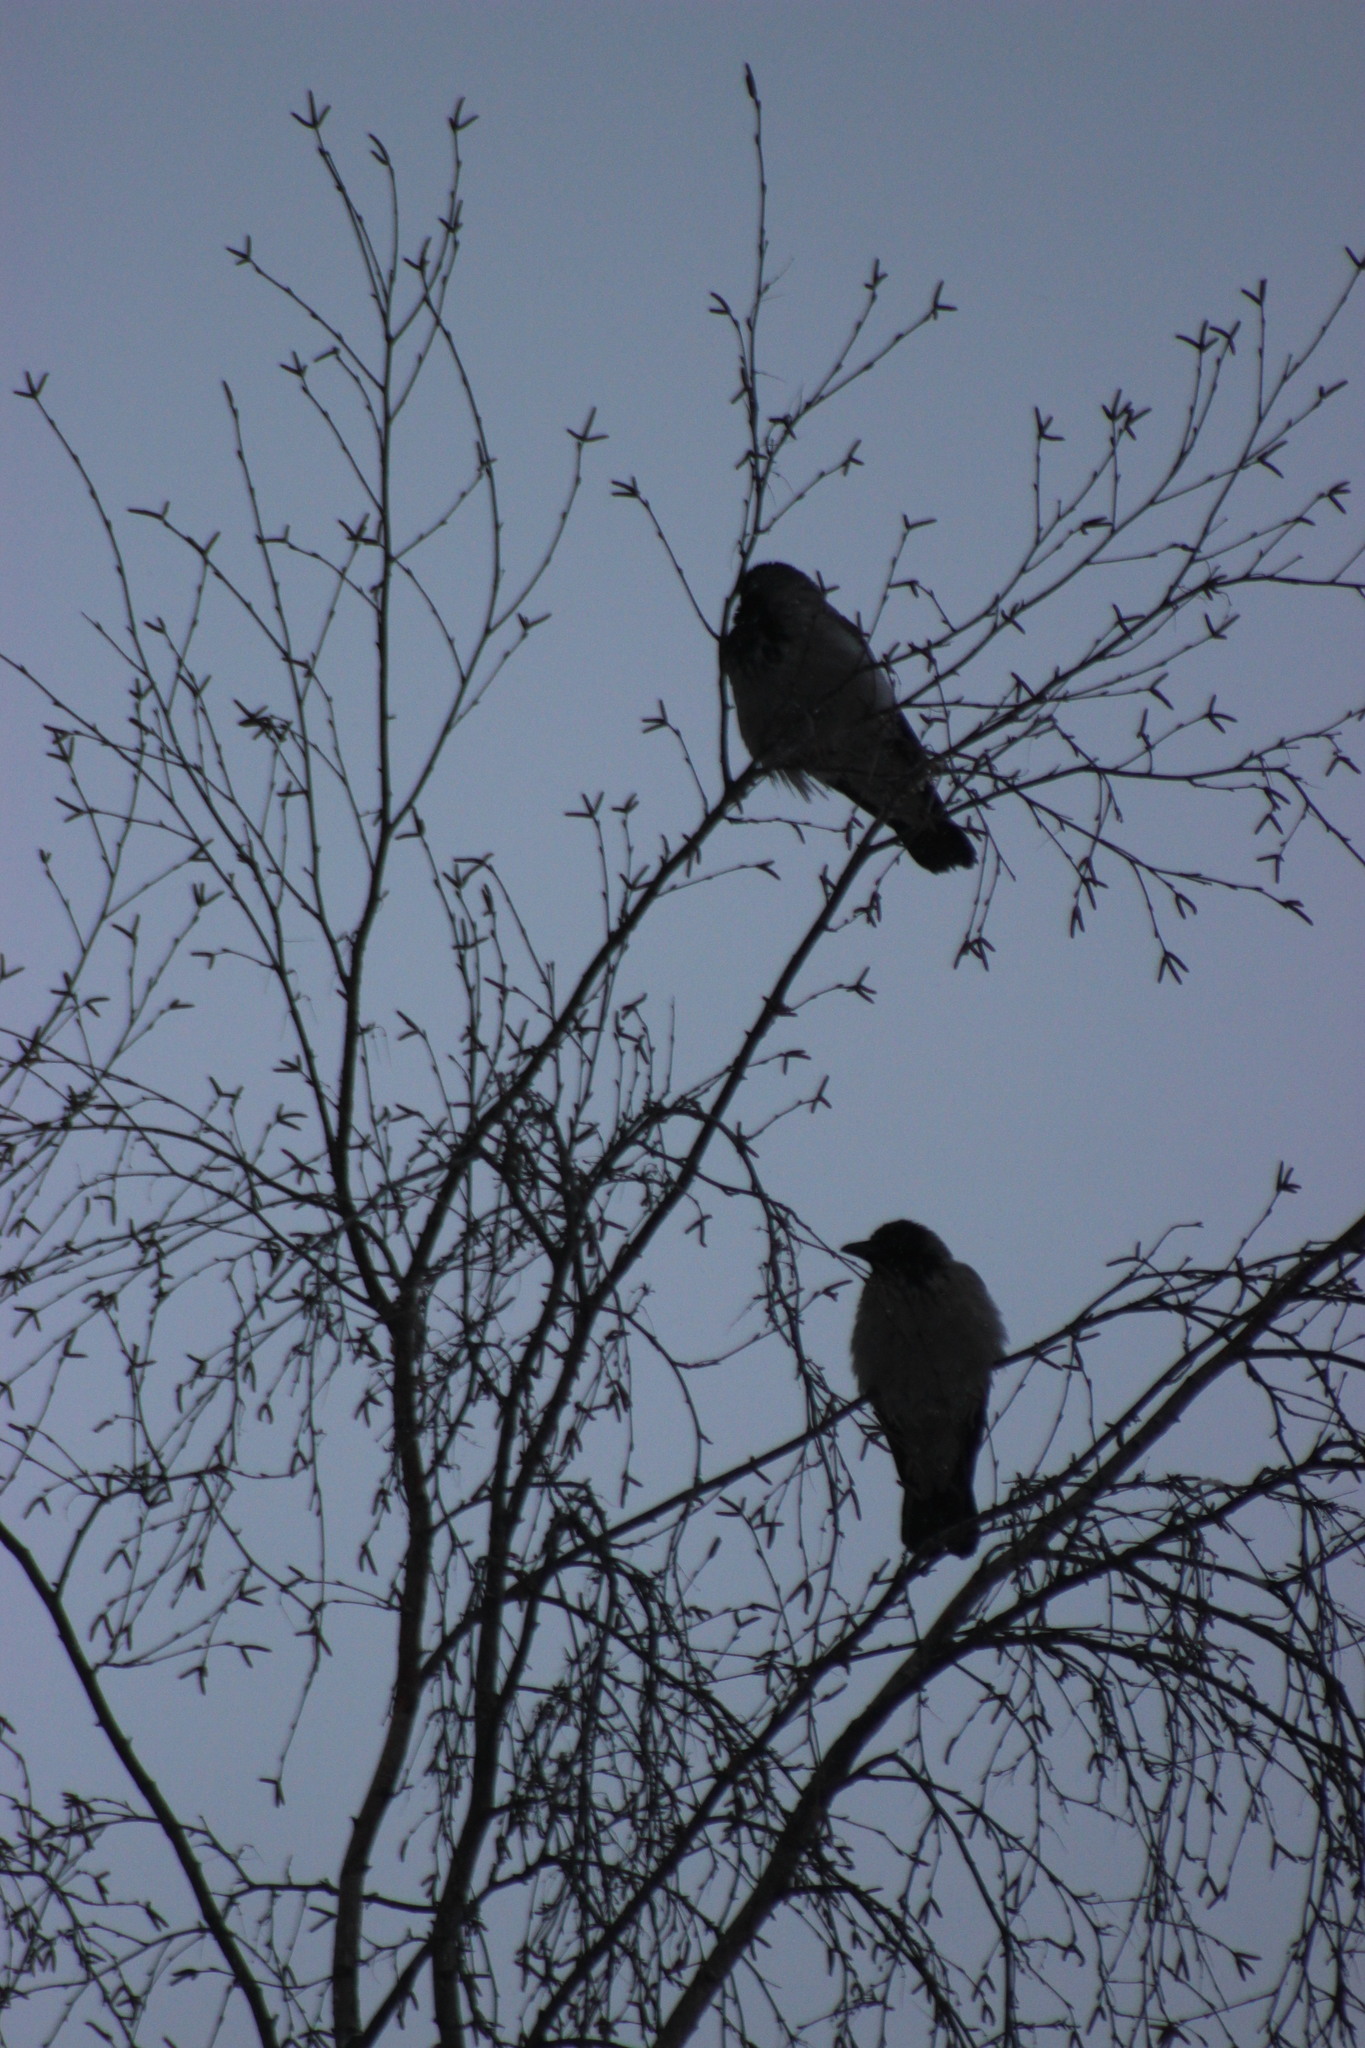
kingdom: Animalia
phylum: Chordata
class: Aves
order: Passeriformes
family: Corvidae
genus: Corvus
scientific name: Corvus cornix
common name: Hooded crow
